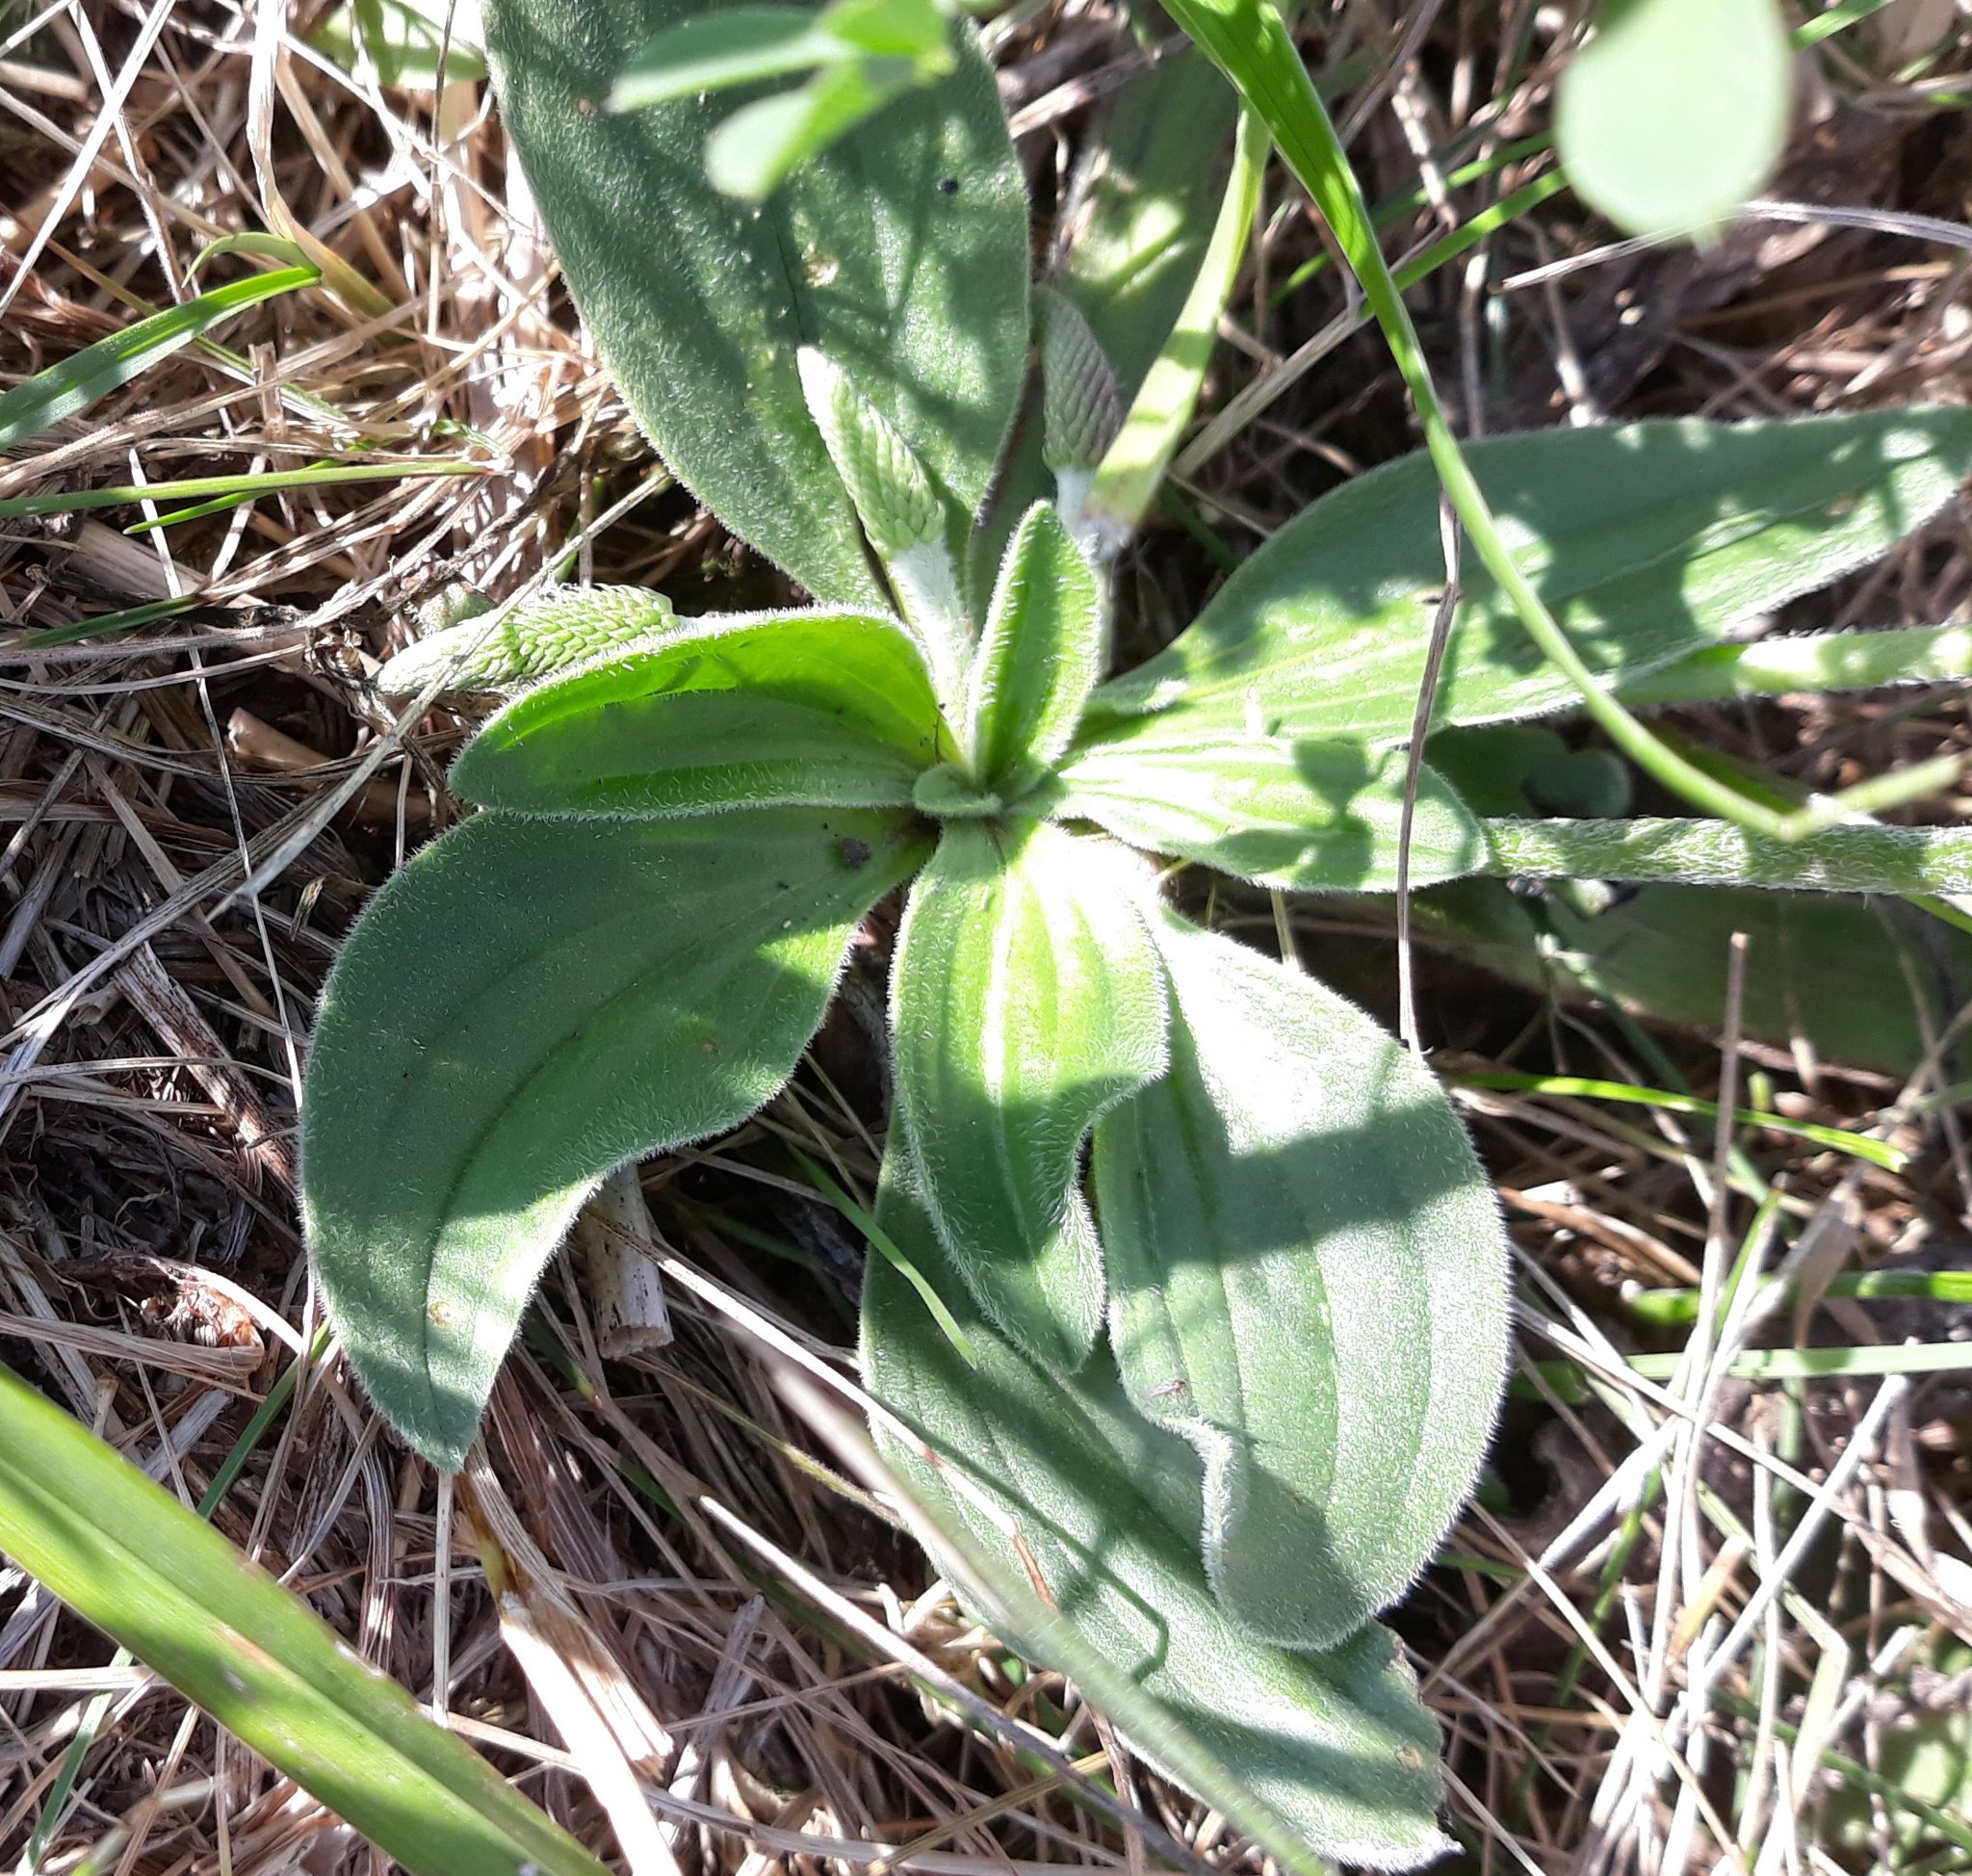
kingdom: Plantae
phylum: Tracheophyta
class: Magnoliopsida
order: Lamiales
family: Plantaginaceae
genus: Plantago
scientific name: Plantago media
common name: Hoary plantain
